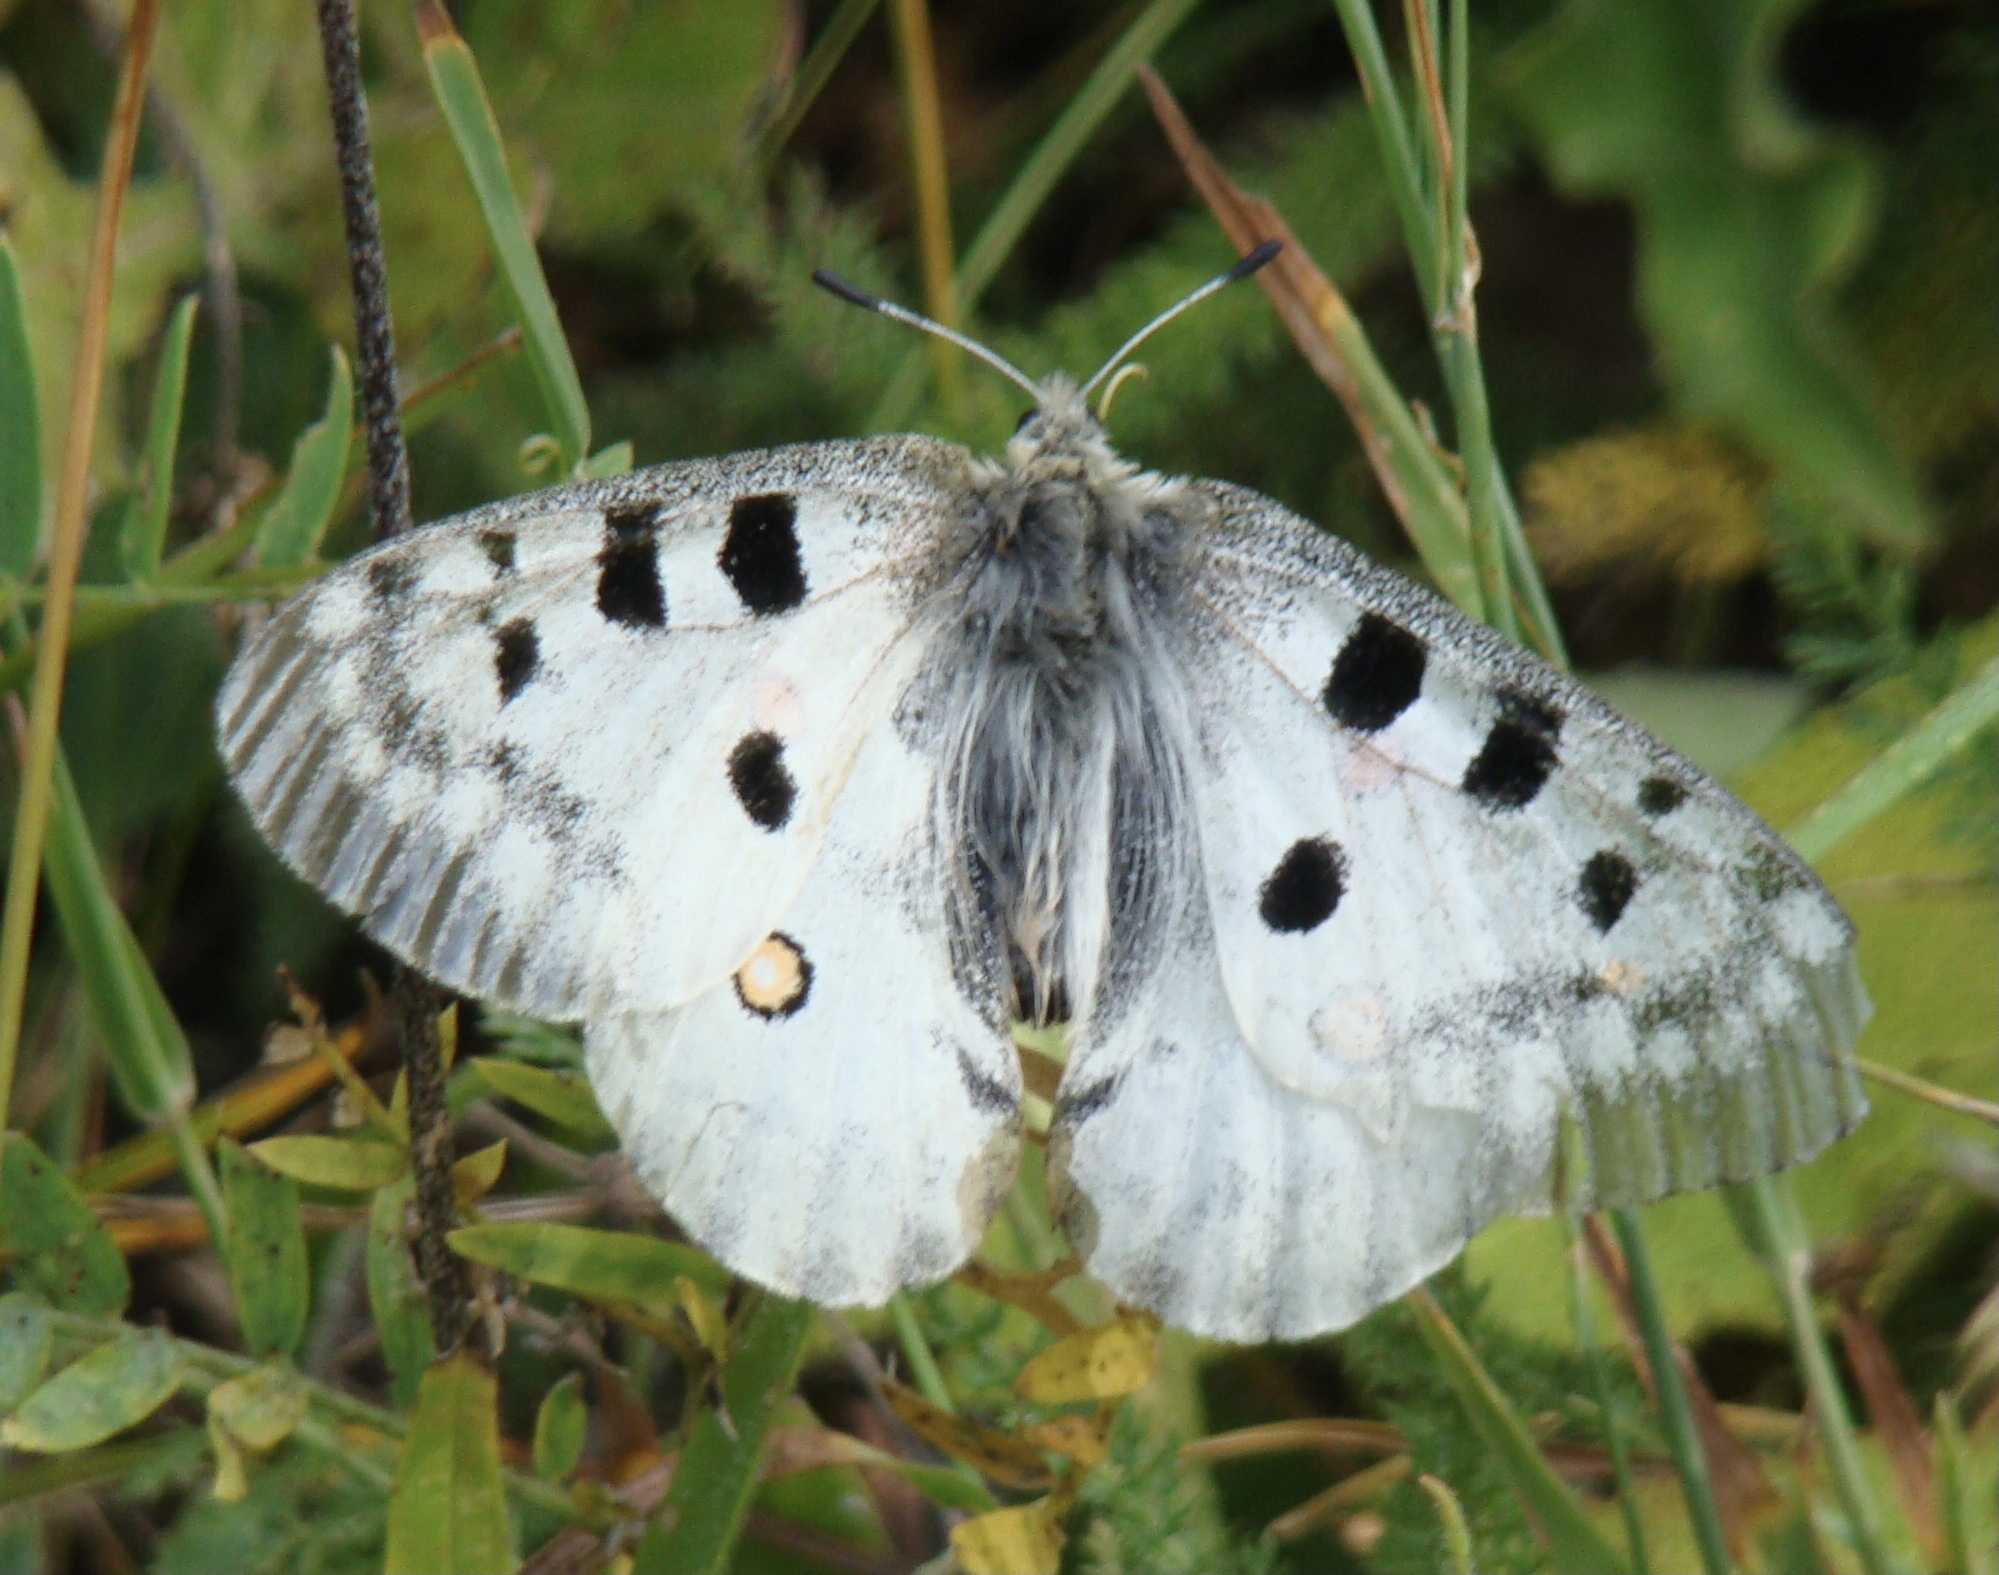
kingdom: Animalia
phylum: Arthropoda
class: Insecta
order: Lepidoptera
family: Papilionidae
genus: Parnassius
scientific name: Parnassius apollo
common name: Apollo
